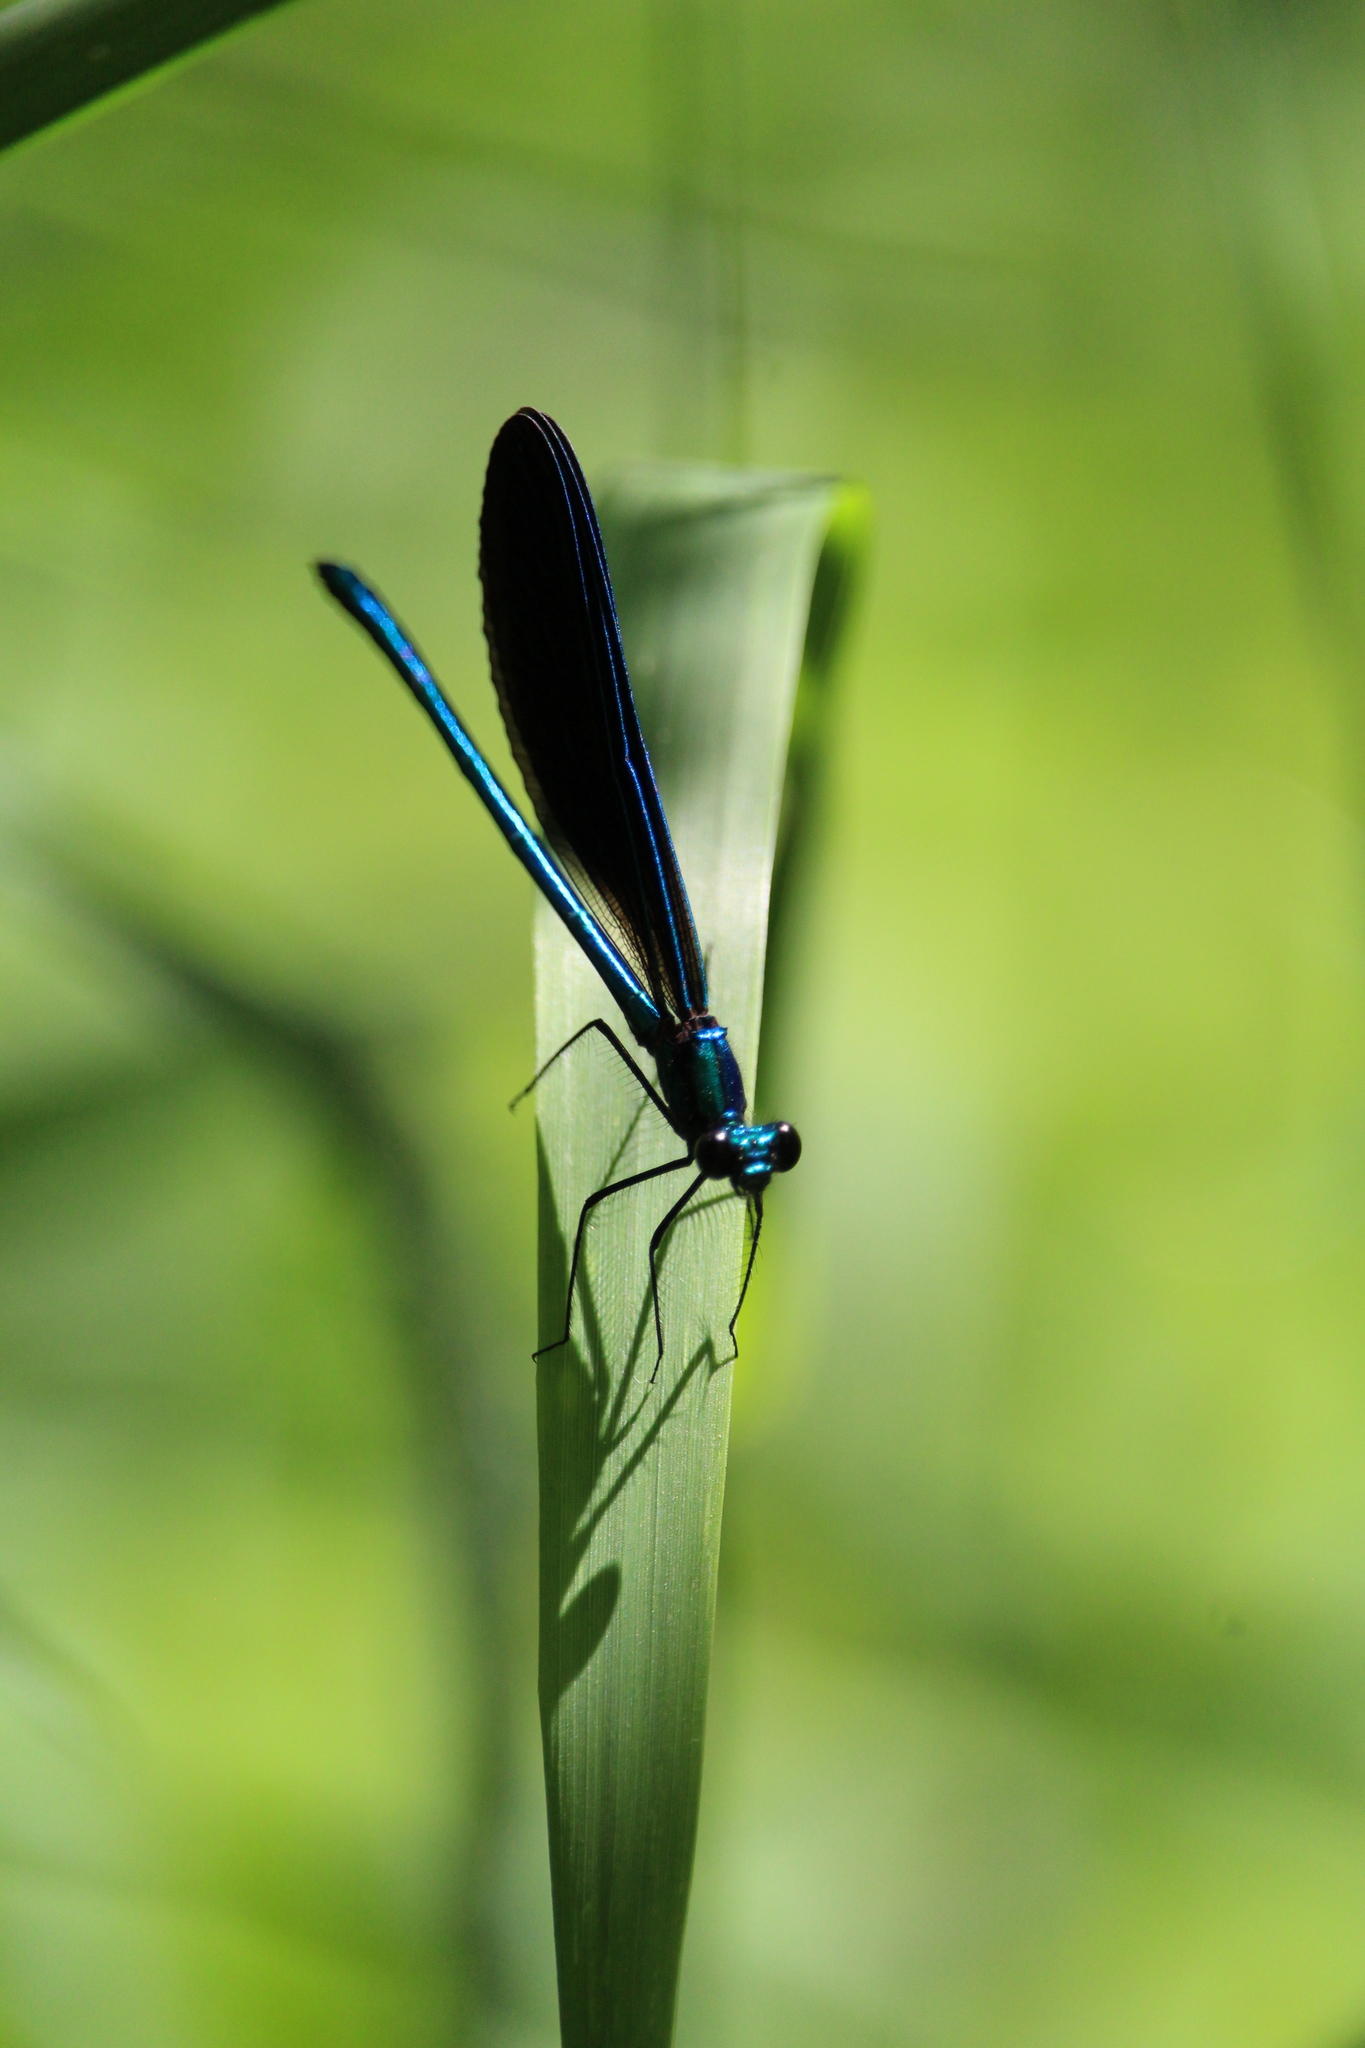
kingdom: Animalia
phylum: Arthropoda
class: Insecta
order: Odonata
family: Calopterygidae
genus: Calopteryx
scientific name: Calopteryx maculata
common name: Ebony jewelwing
